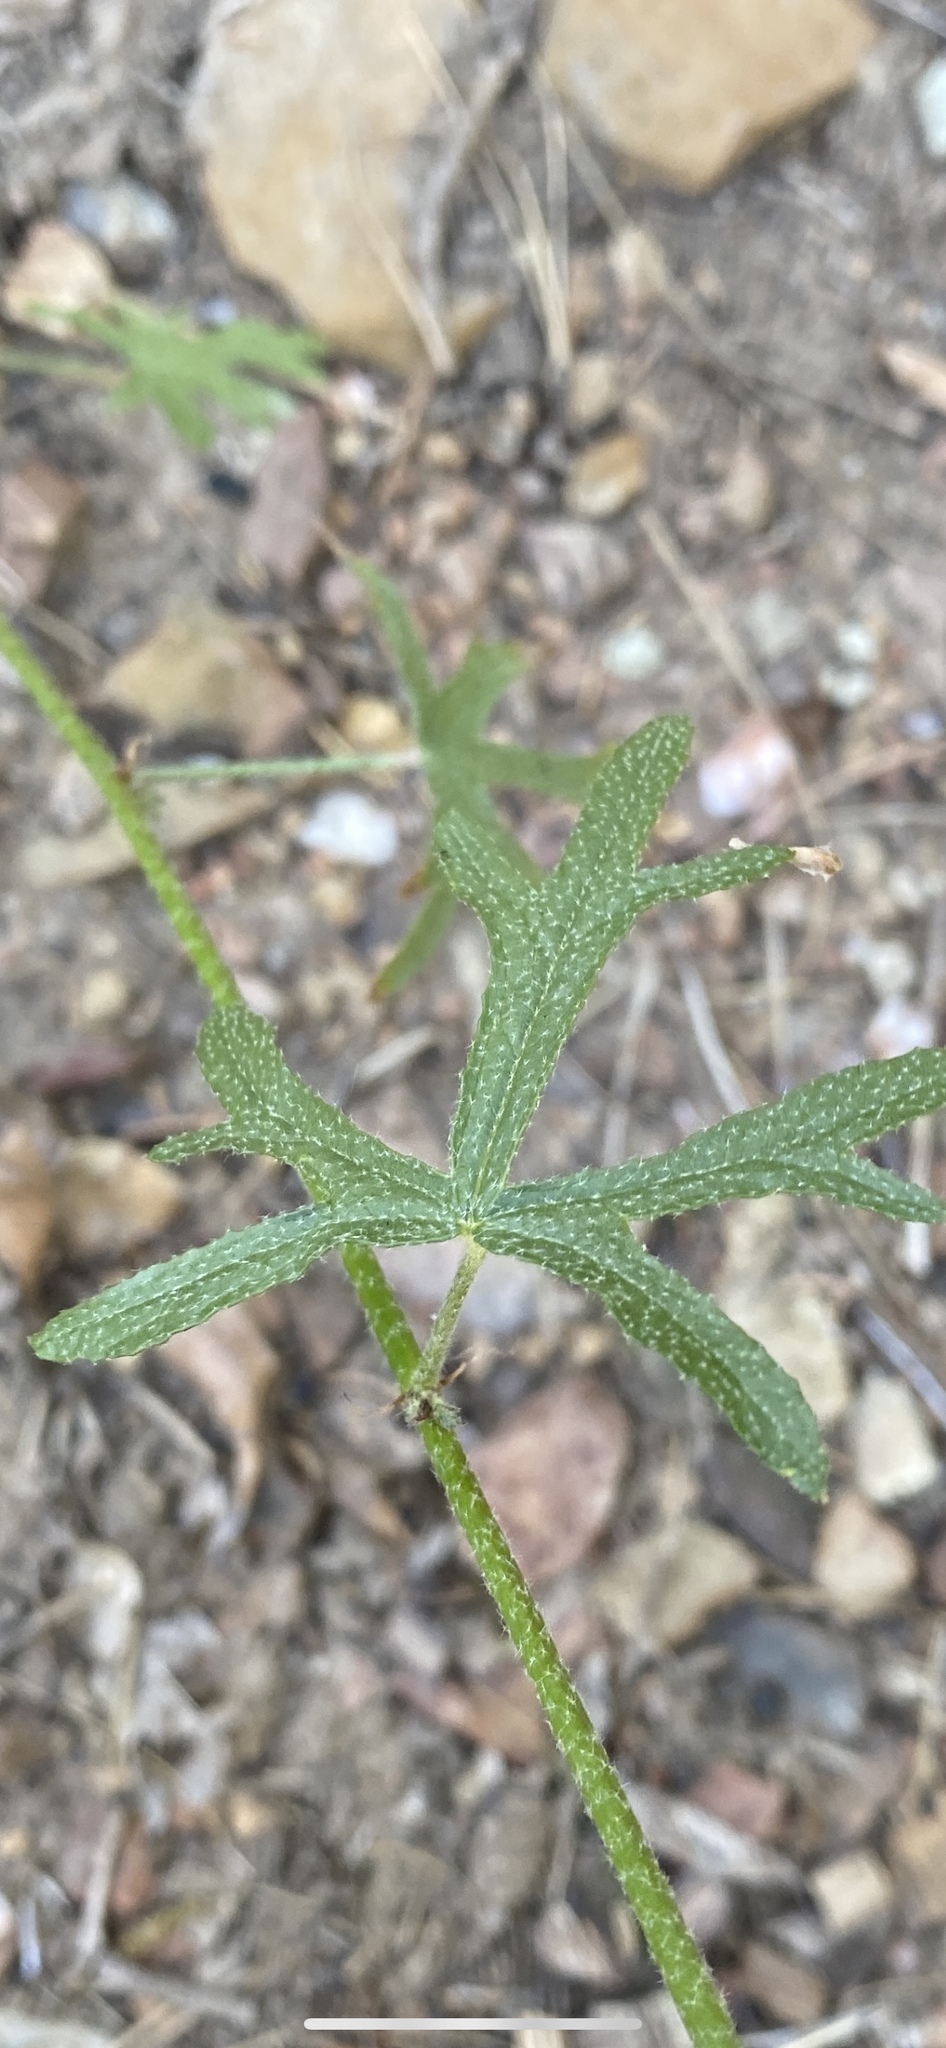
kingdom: Plantae
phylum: Tracheophyta
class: Magnoliopsida
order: Malvales
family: Malvaceae
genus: Sphaeralcea
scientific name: Sphaeralcea rusbyi
